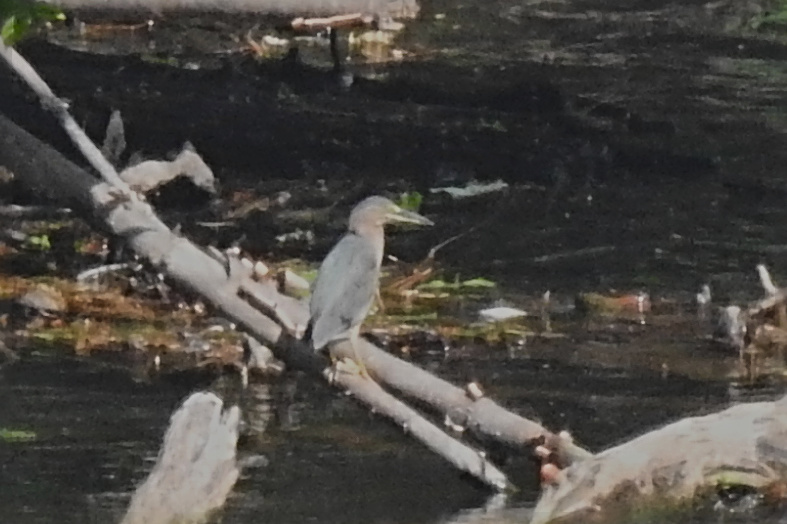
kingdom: Animalia
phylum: Chordata
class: Aves
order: Pelecaniformes
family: Ardeidae
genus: Butorides
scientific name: Butorides virescens
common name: Green heron
